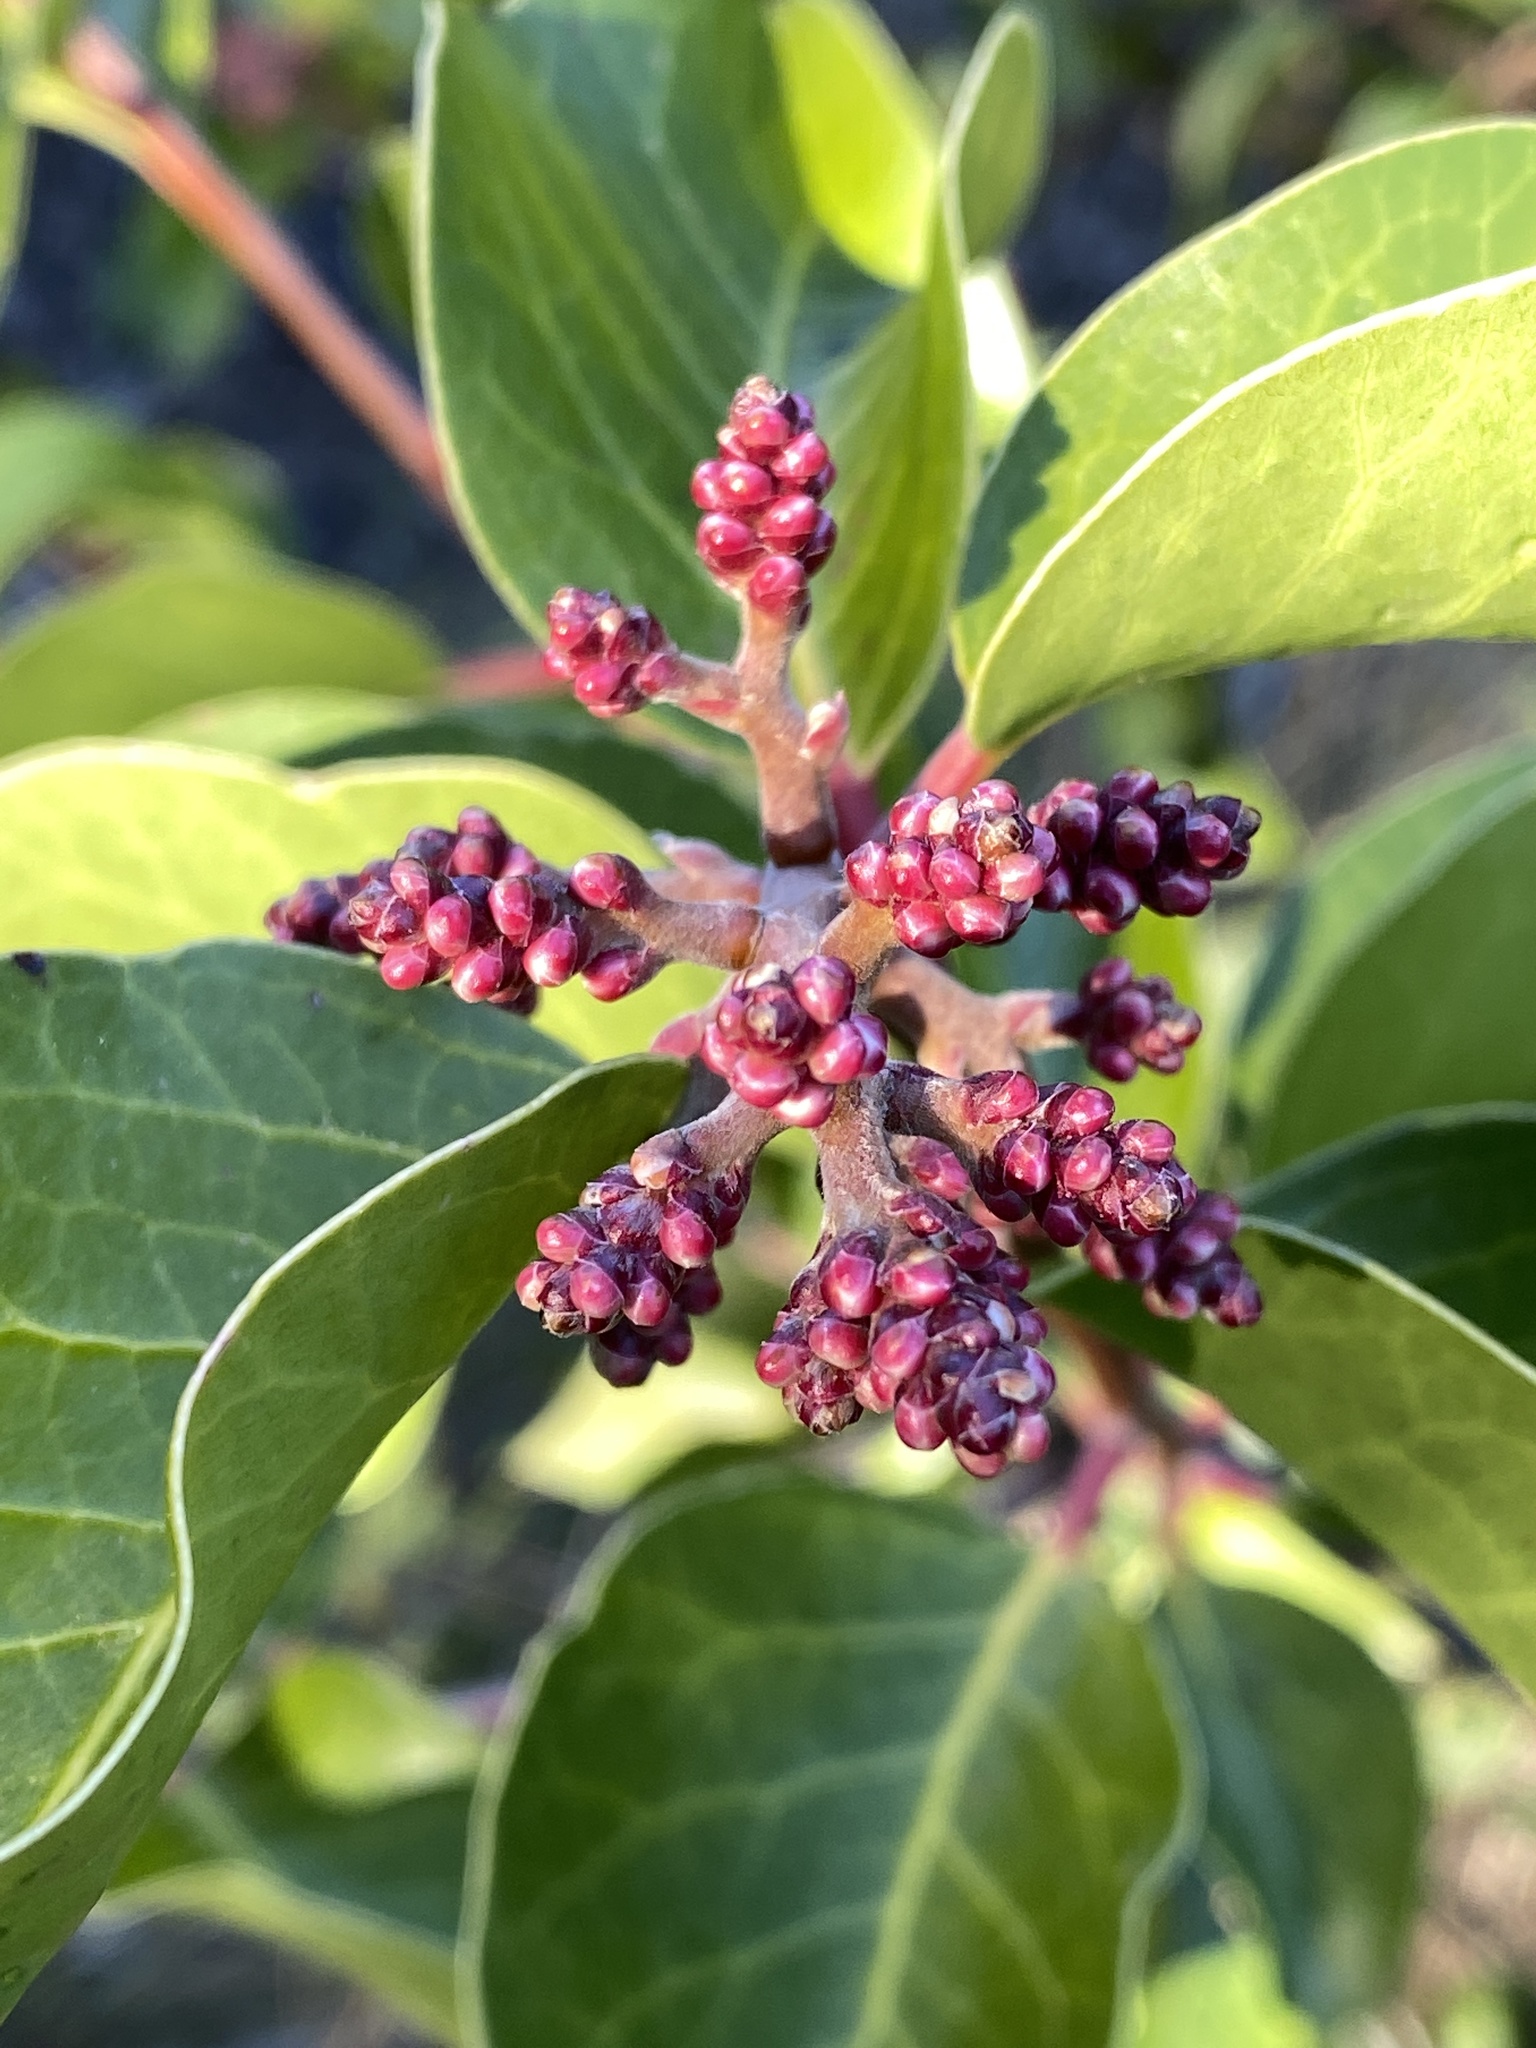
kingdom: Plantae
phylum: Tracheophyta
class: Magnoliopsida
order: Sapindales
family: Anacardiaceae
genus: Rhus
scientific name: Rhus ovata
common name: Sugar sumac
